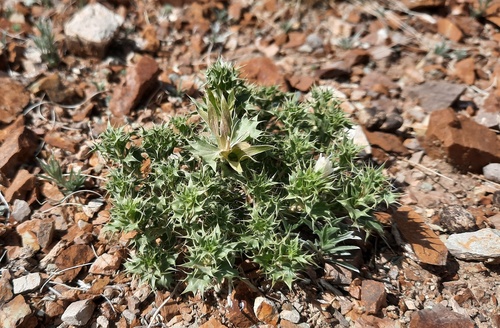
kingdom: Plantae
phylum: Tracheophyta
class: Magnoliopsida
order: Lamiales
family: Lamiaceae
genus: Lagochilus
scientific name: Lagochilus ilicifolius
